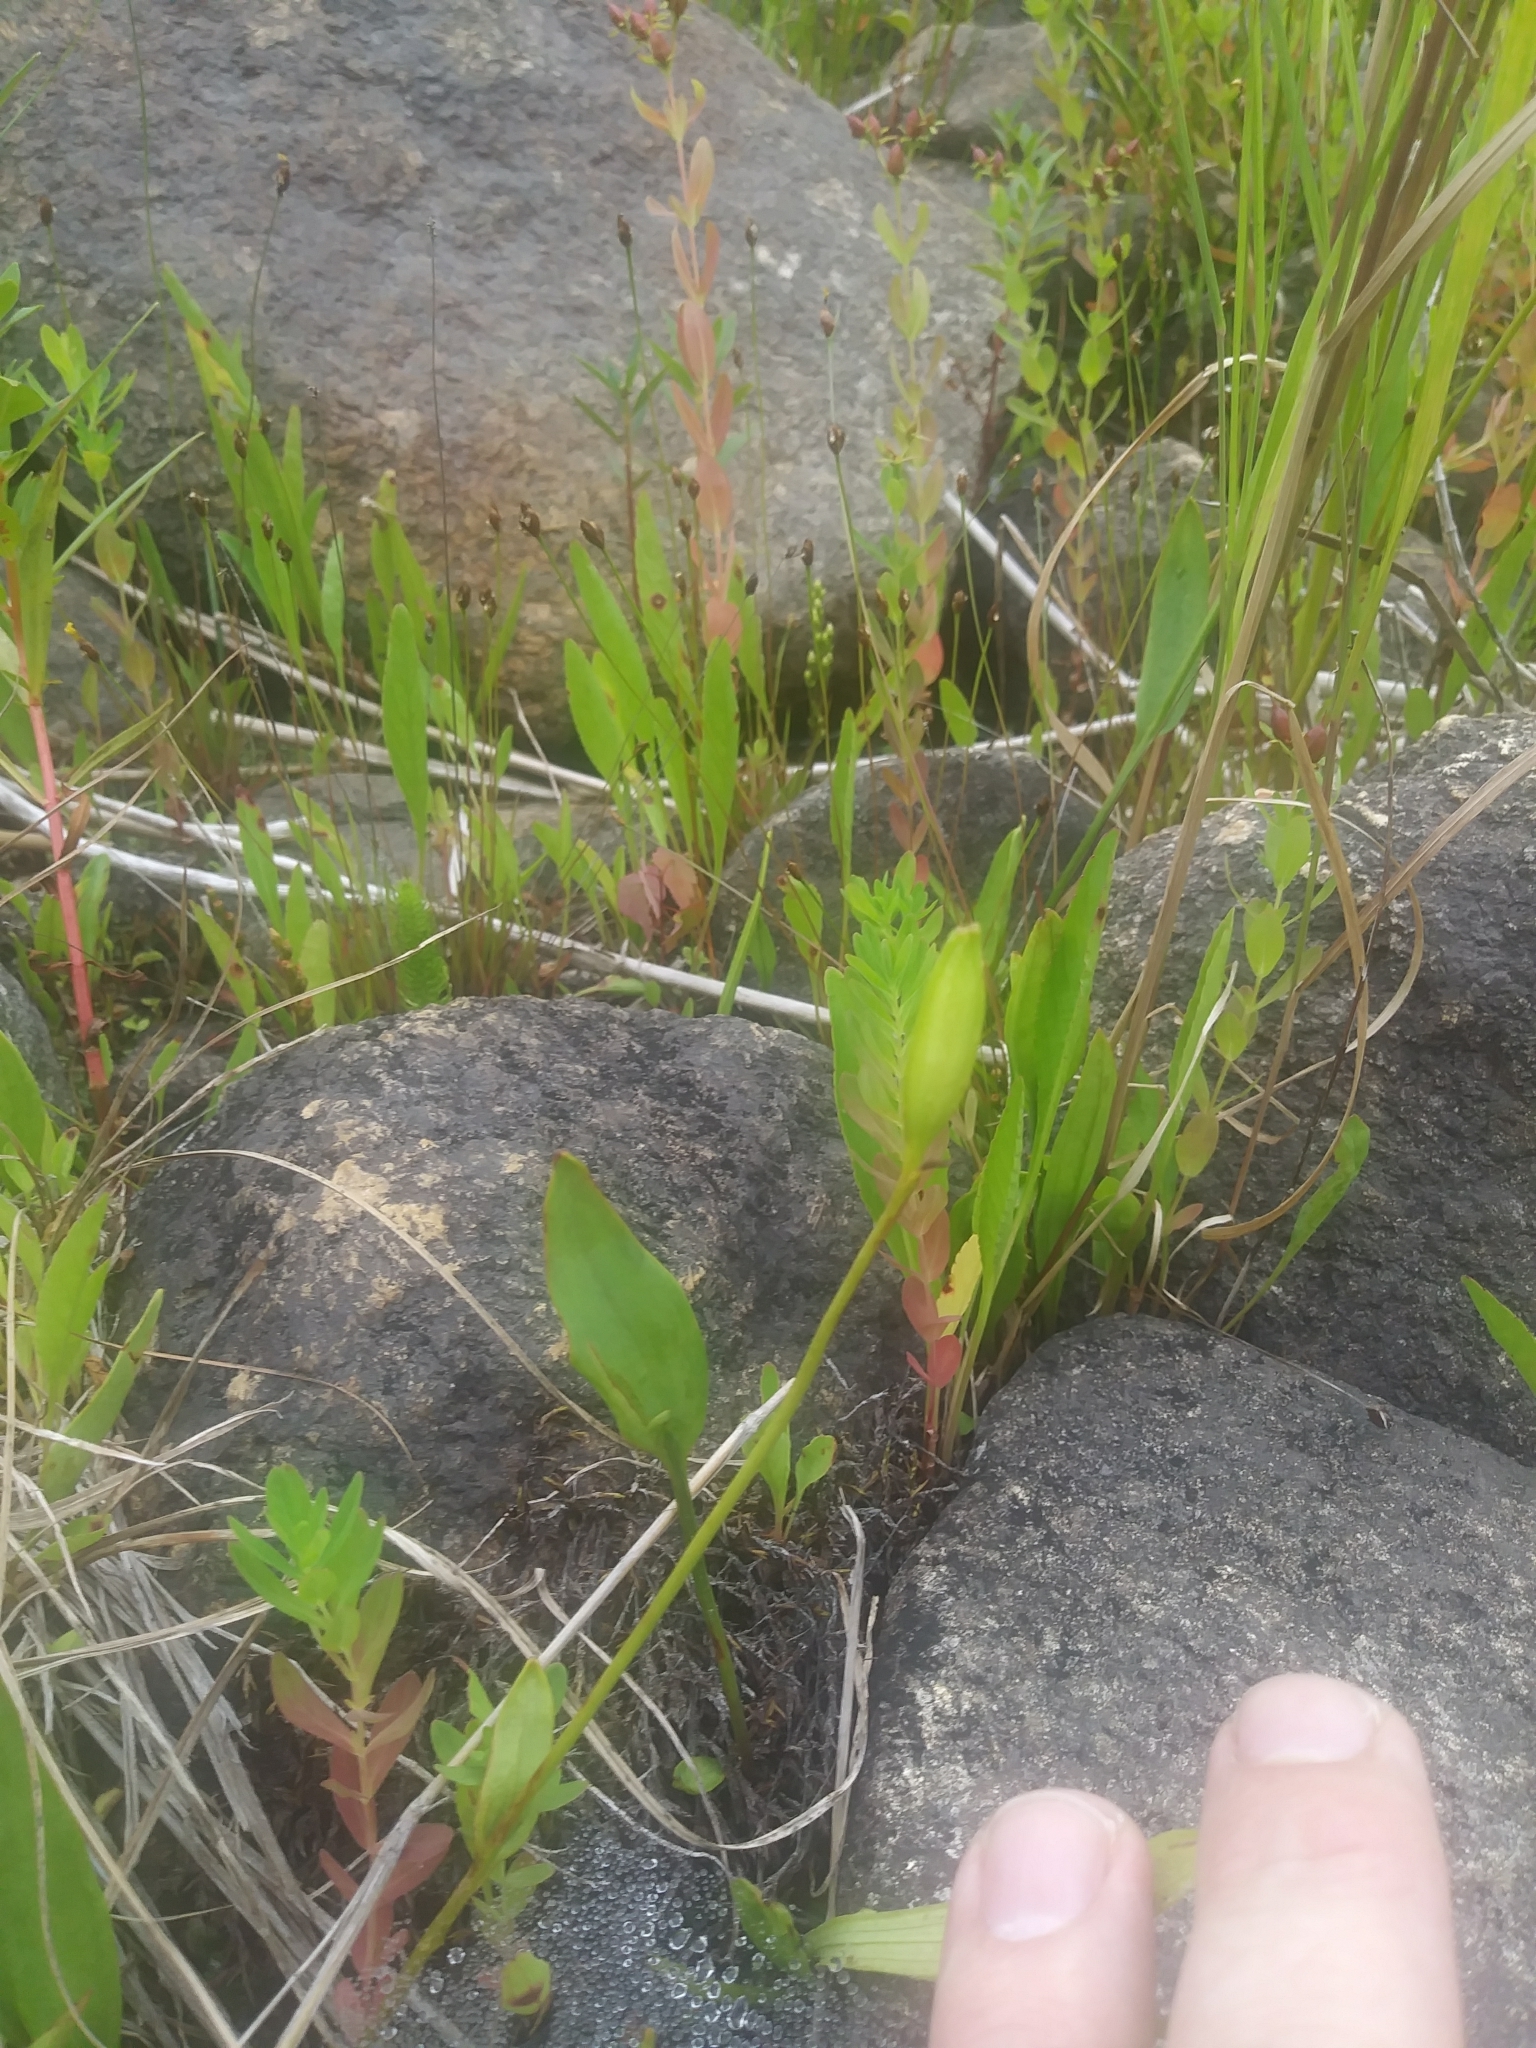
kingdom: Plantae
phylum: Tracheophyta
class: Liliopsida
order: Asparagales
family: Orchidaceae
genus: Pogonia
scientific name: Pogonia ophioglossoides
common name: Rose pogonia
